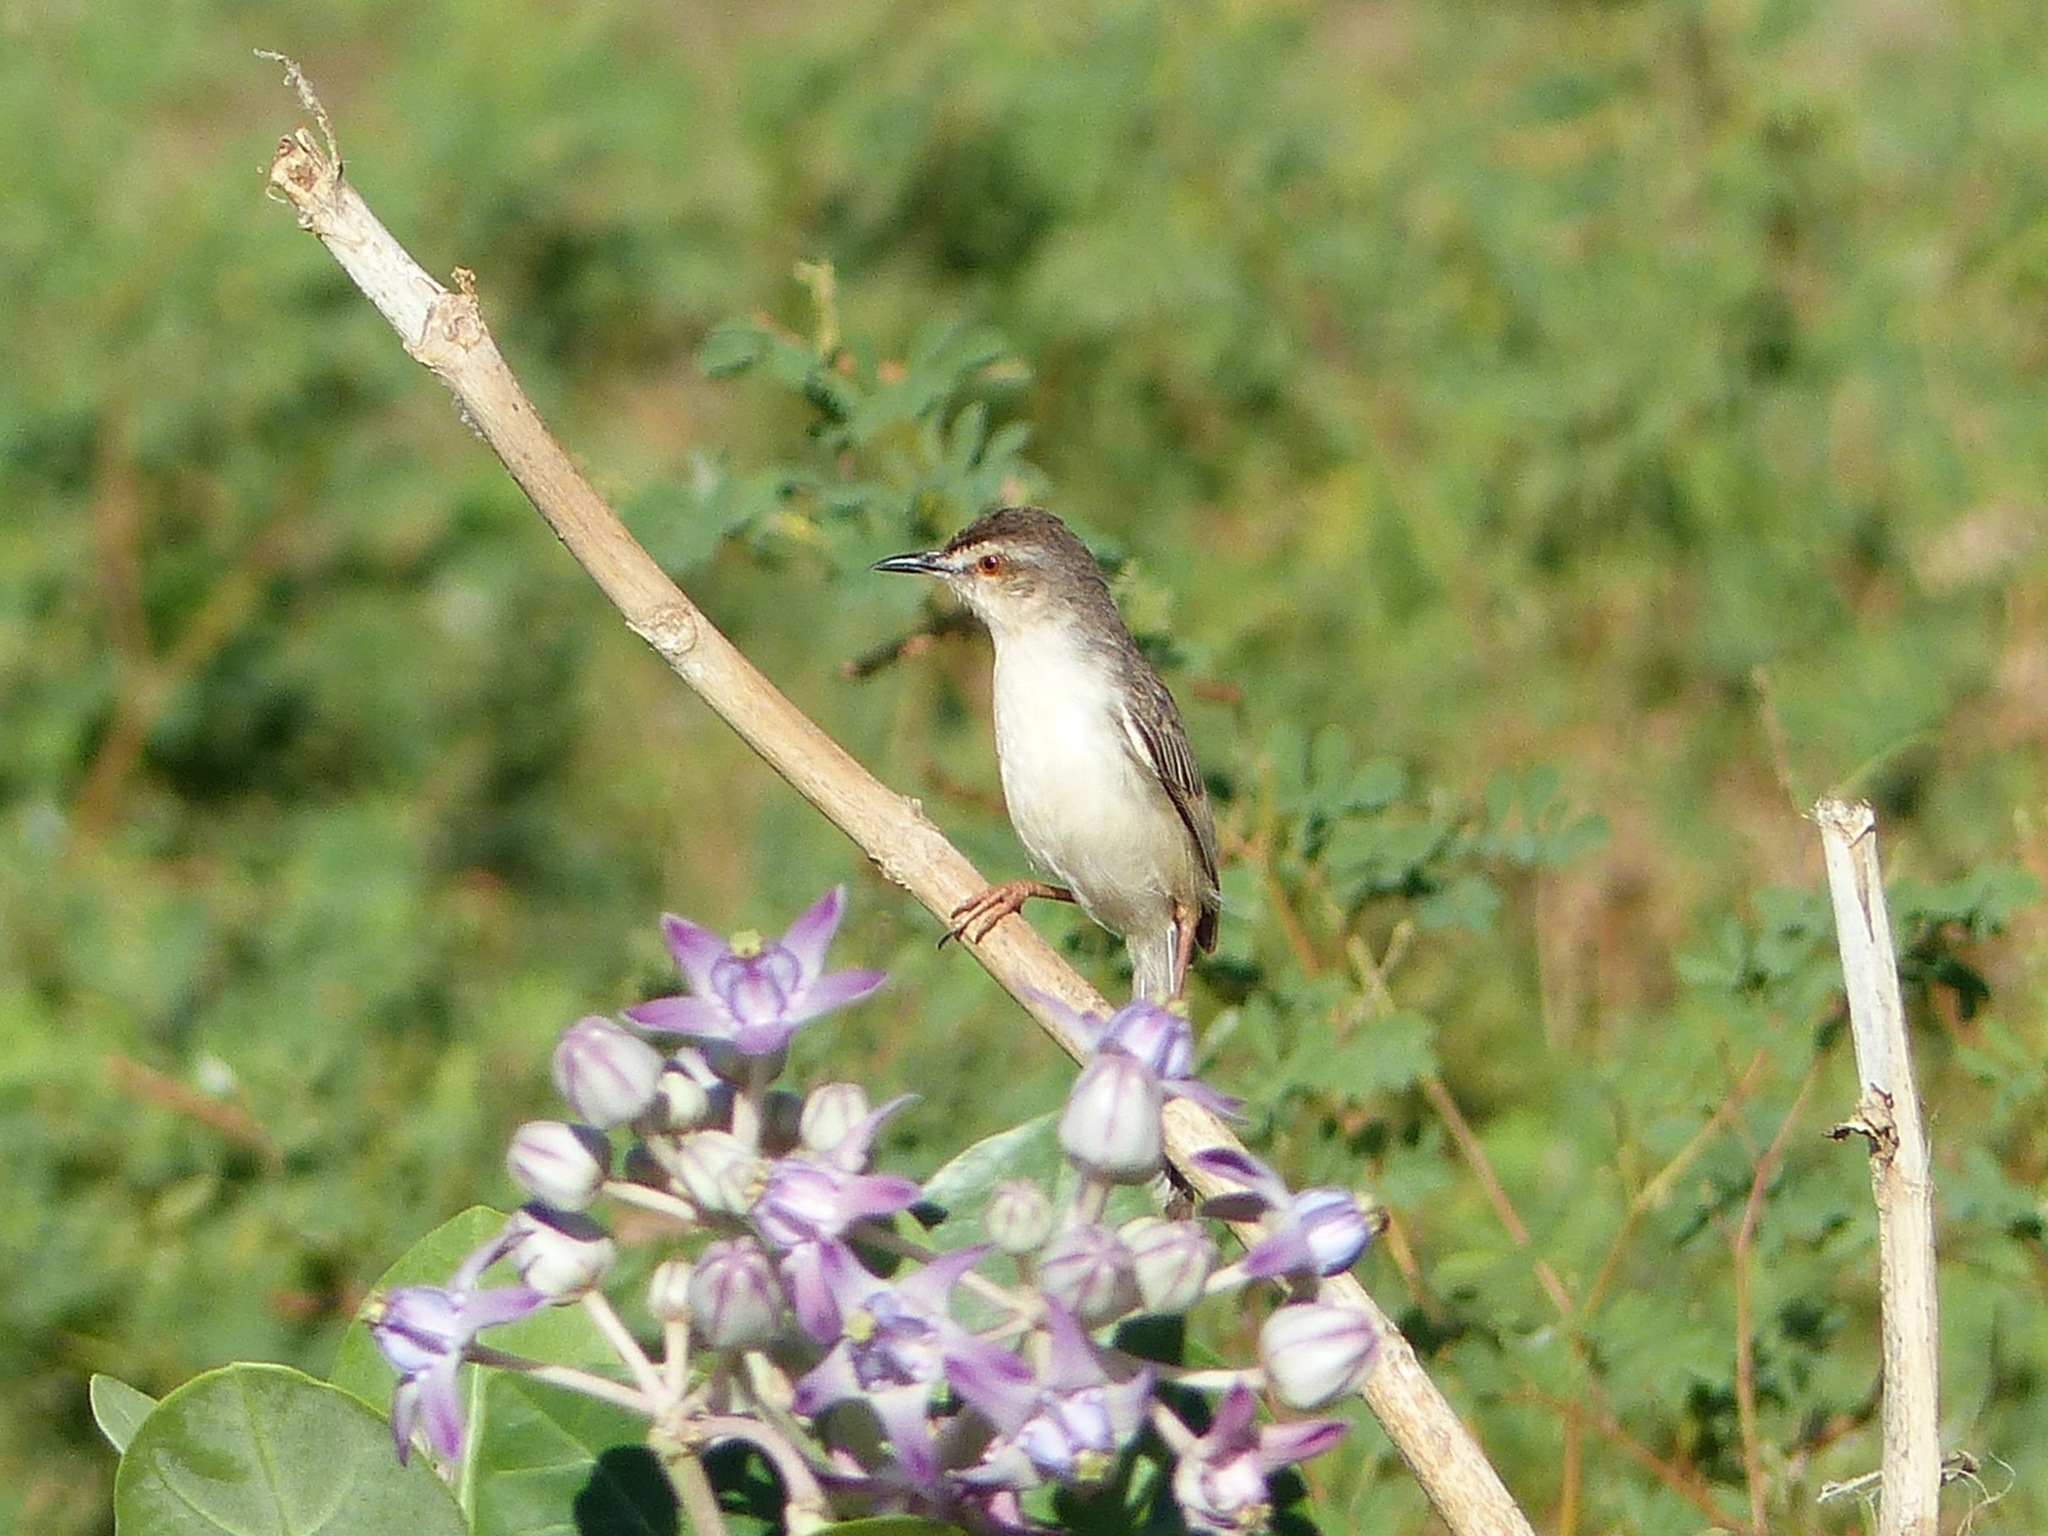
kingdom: Animalia
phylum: Chordata
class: Aves
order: Passeriformes
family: Cisticolidae
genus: Prinia
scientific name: Prinia inornata
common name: Plain prinia
